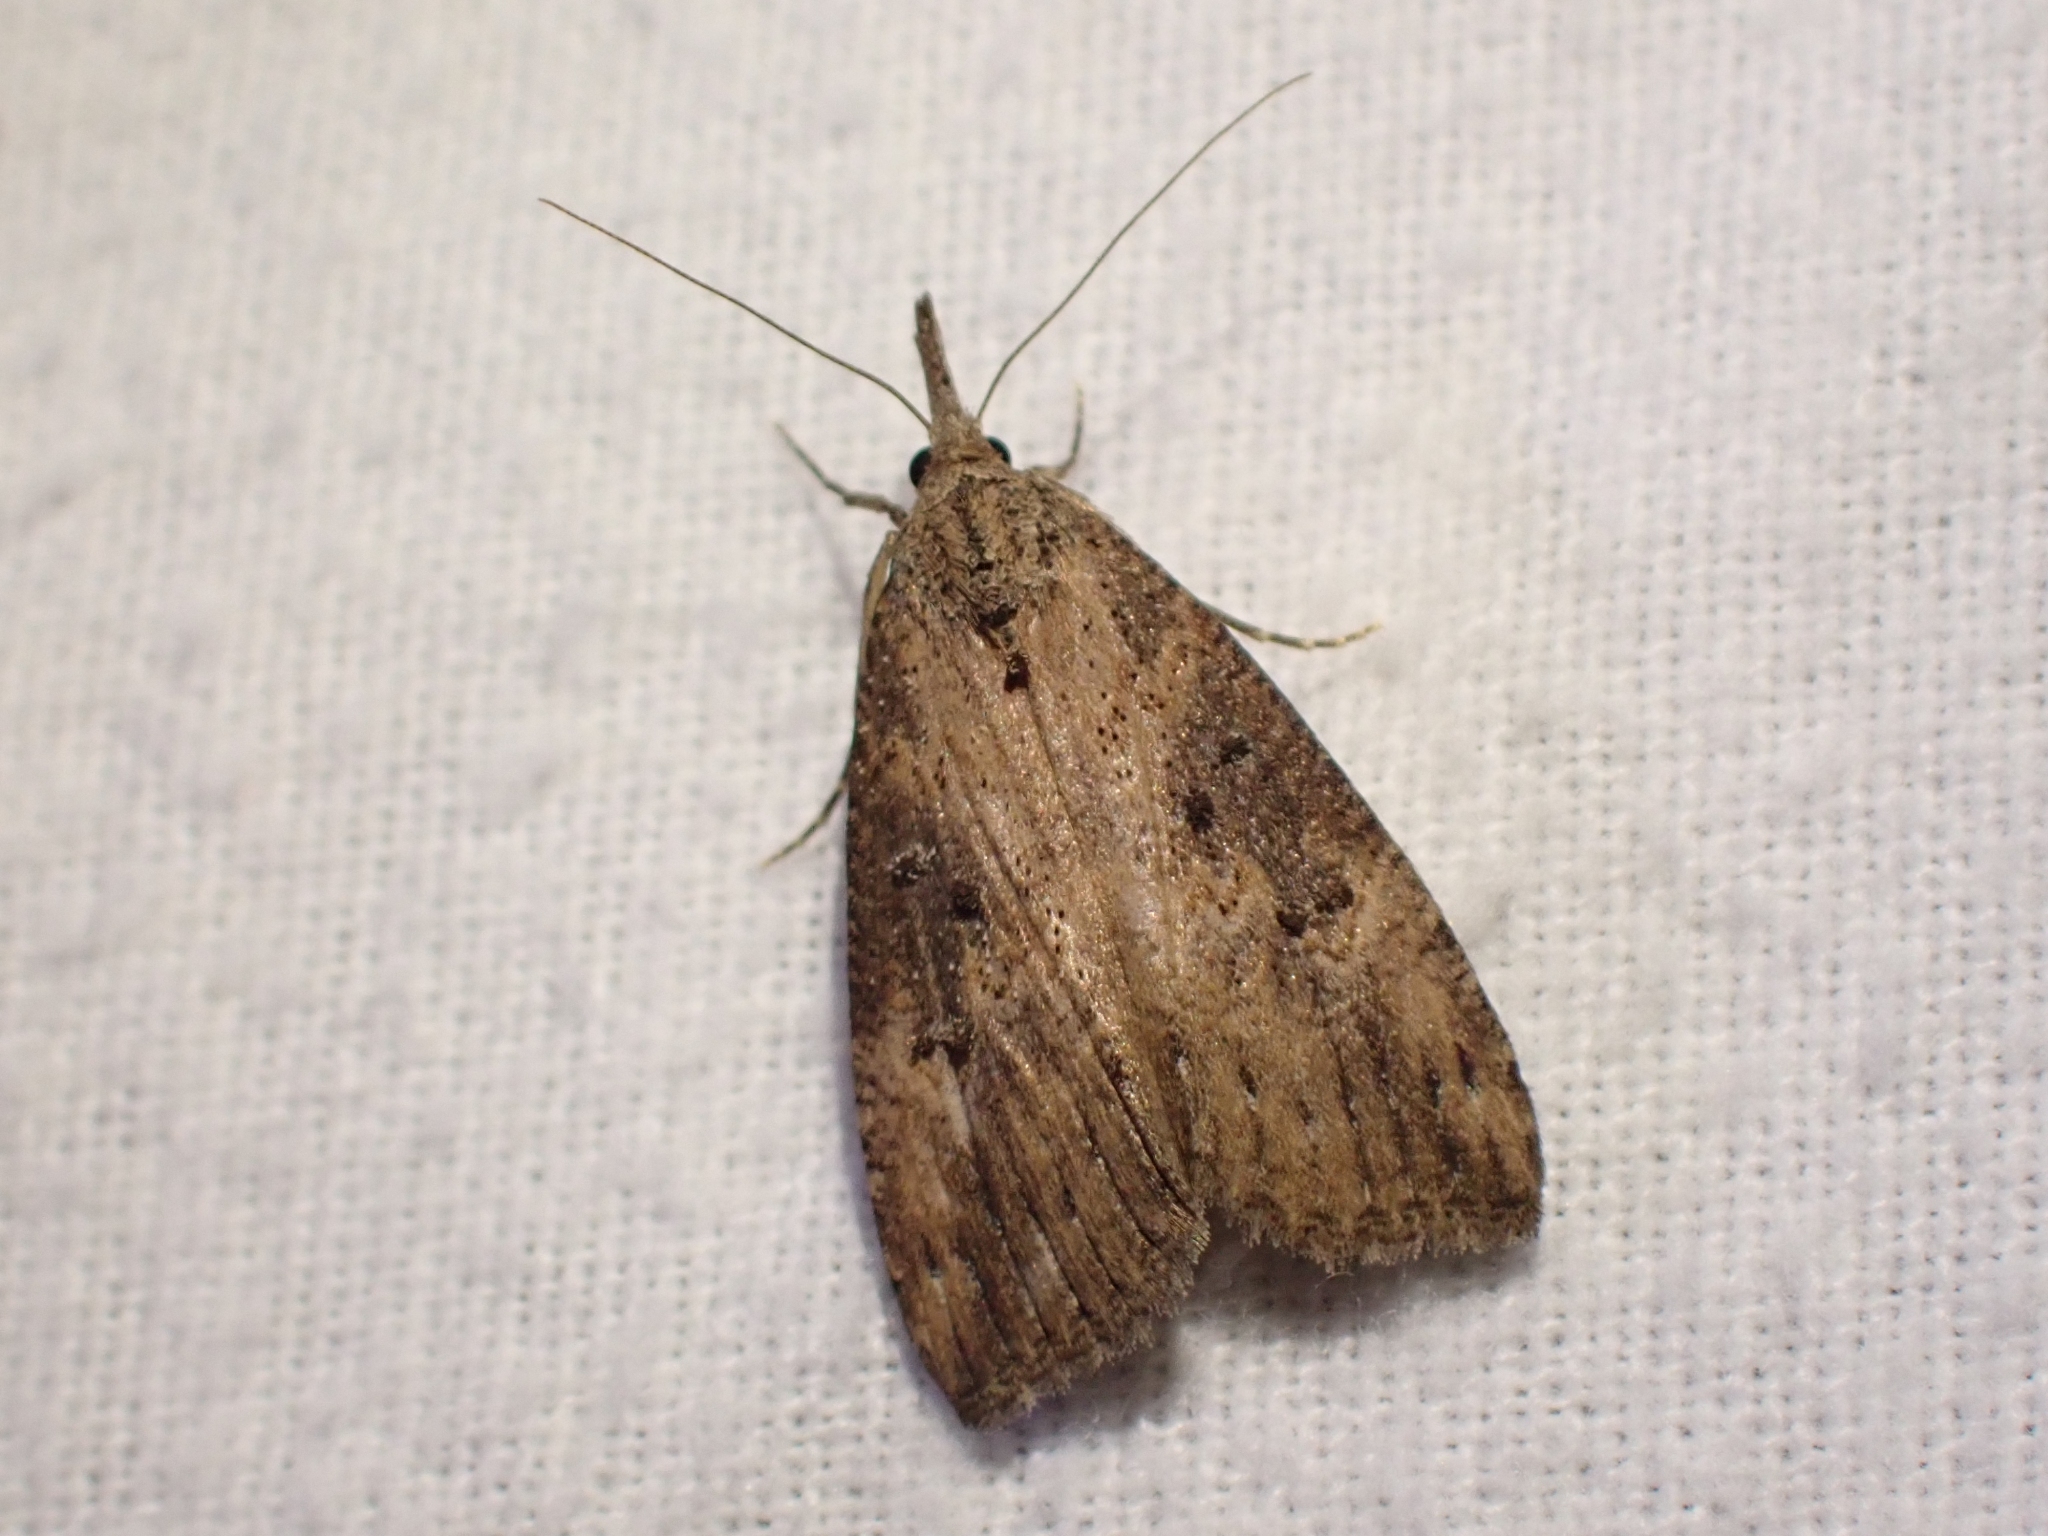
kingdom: Animalia
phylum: Arthropoda
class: Insecta
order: Lepidoptera
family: Erebidae
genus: Hypena
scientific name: Hypena humuli
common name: Hop vine snout
